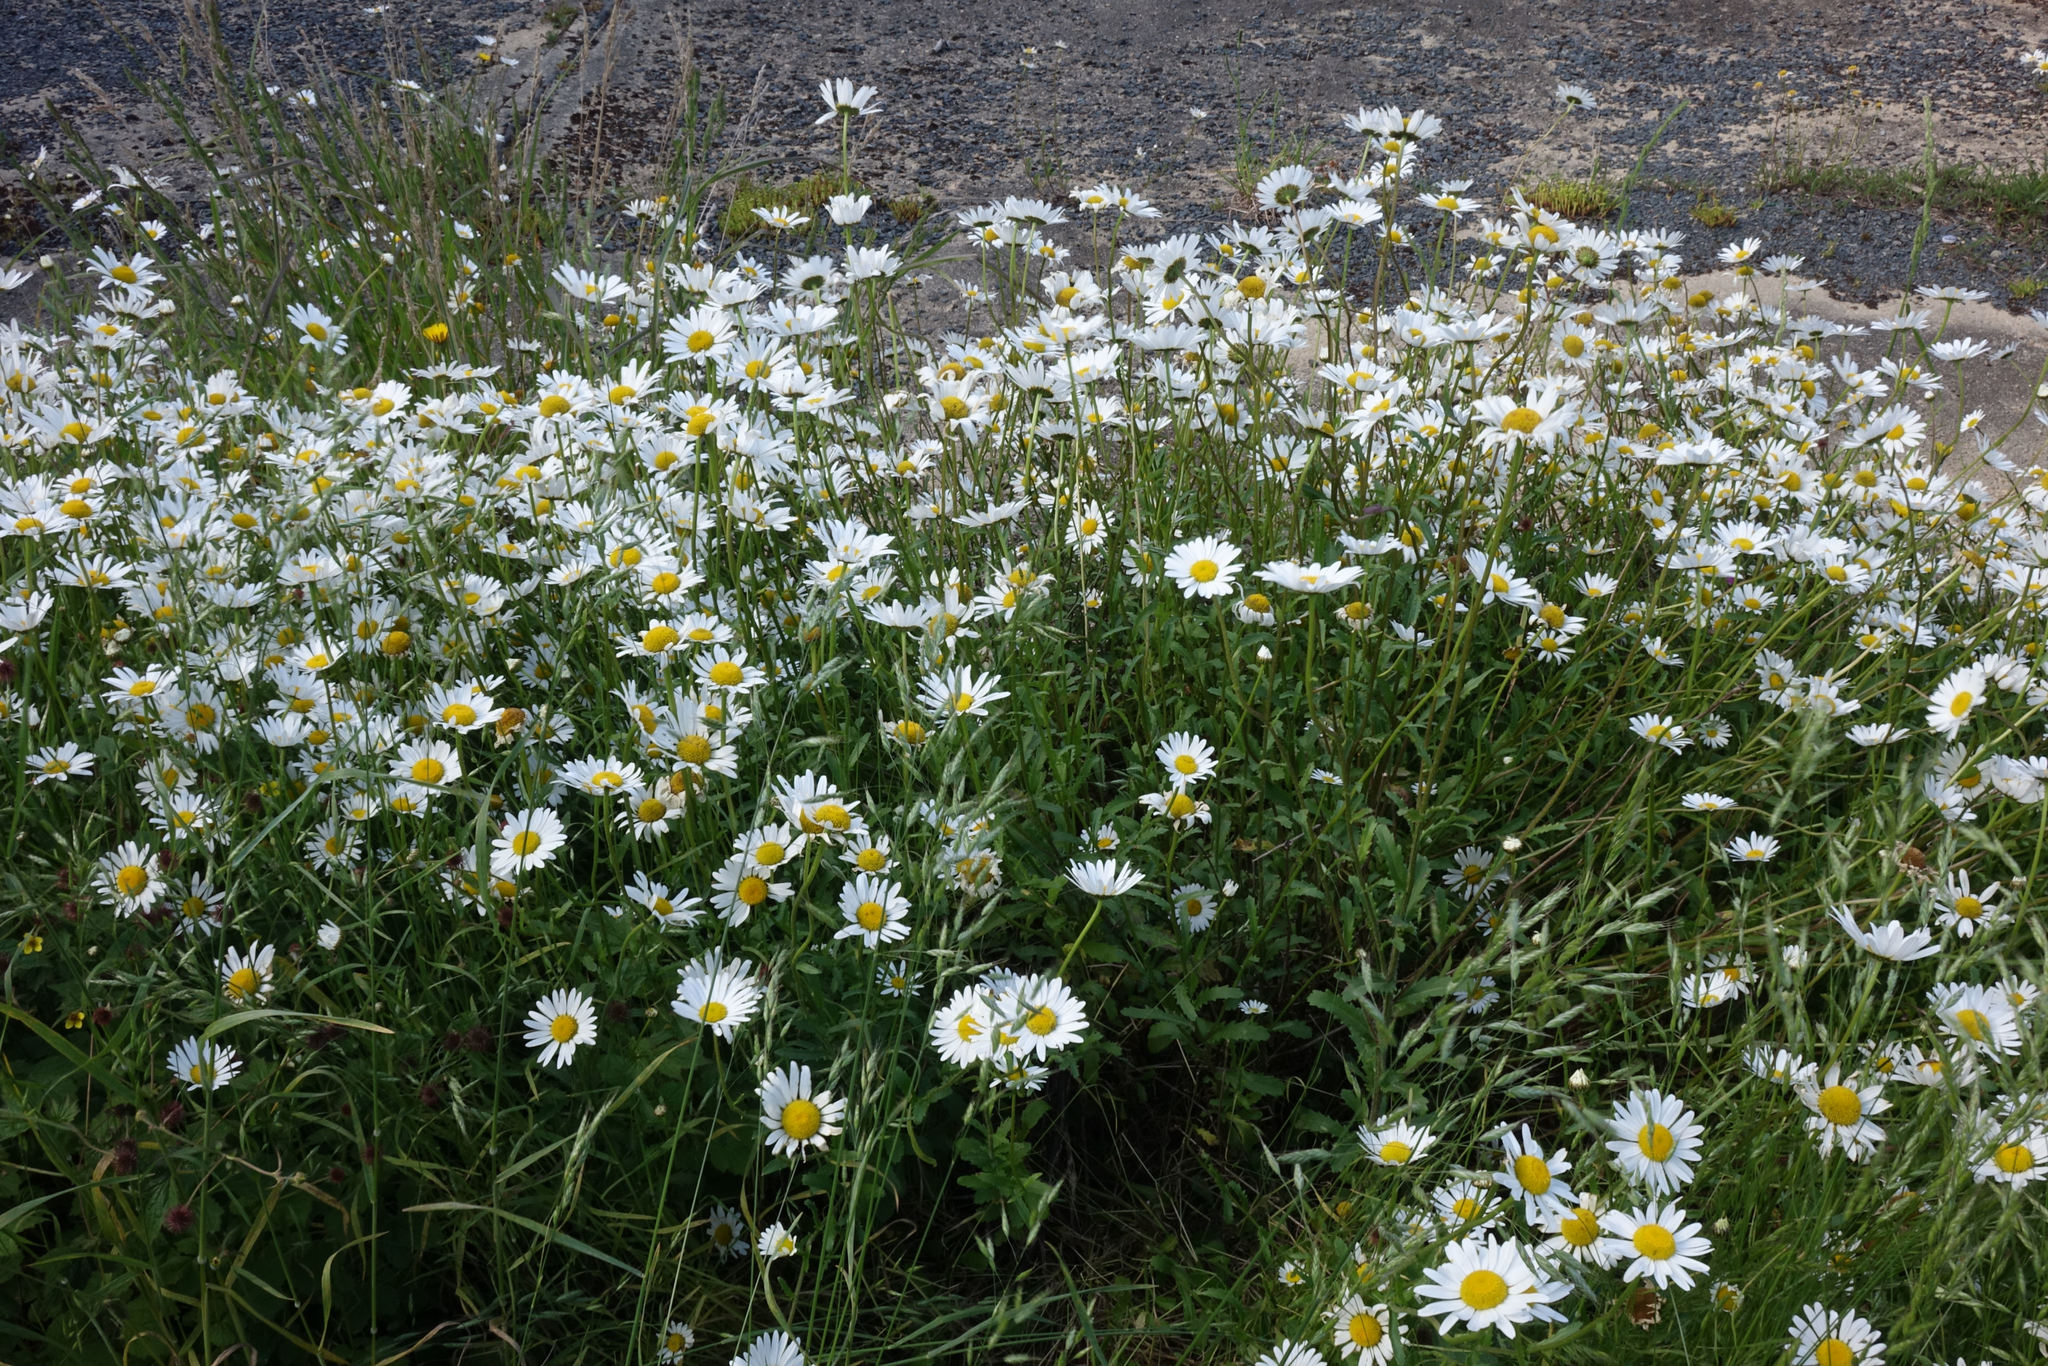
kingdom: Plantae
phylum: Tracheophyta
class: Magnoliopsida
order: Asterales
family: Asteraceae
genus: Leucanthemum
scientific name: Leucanthemum vulgare
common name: Oxeye daisy
